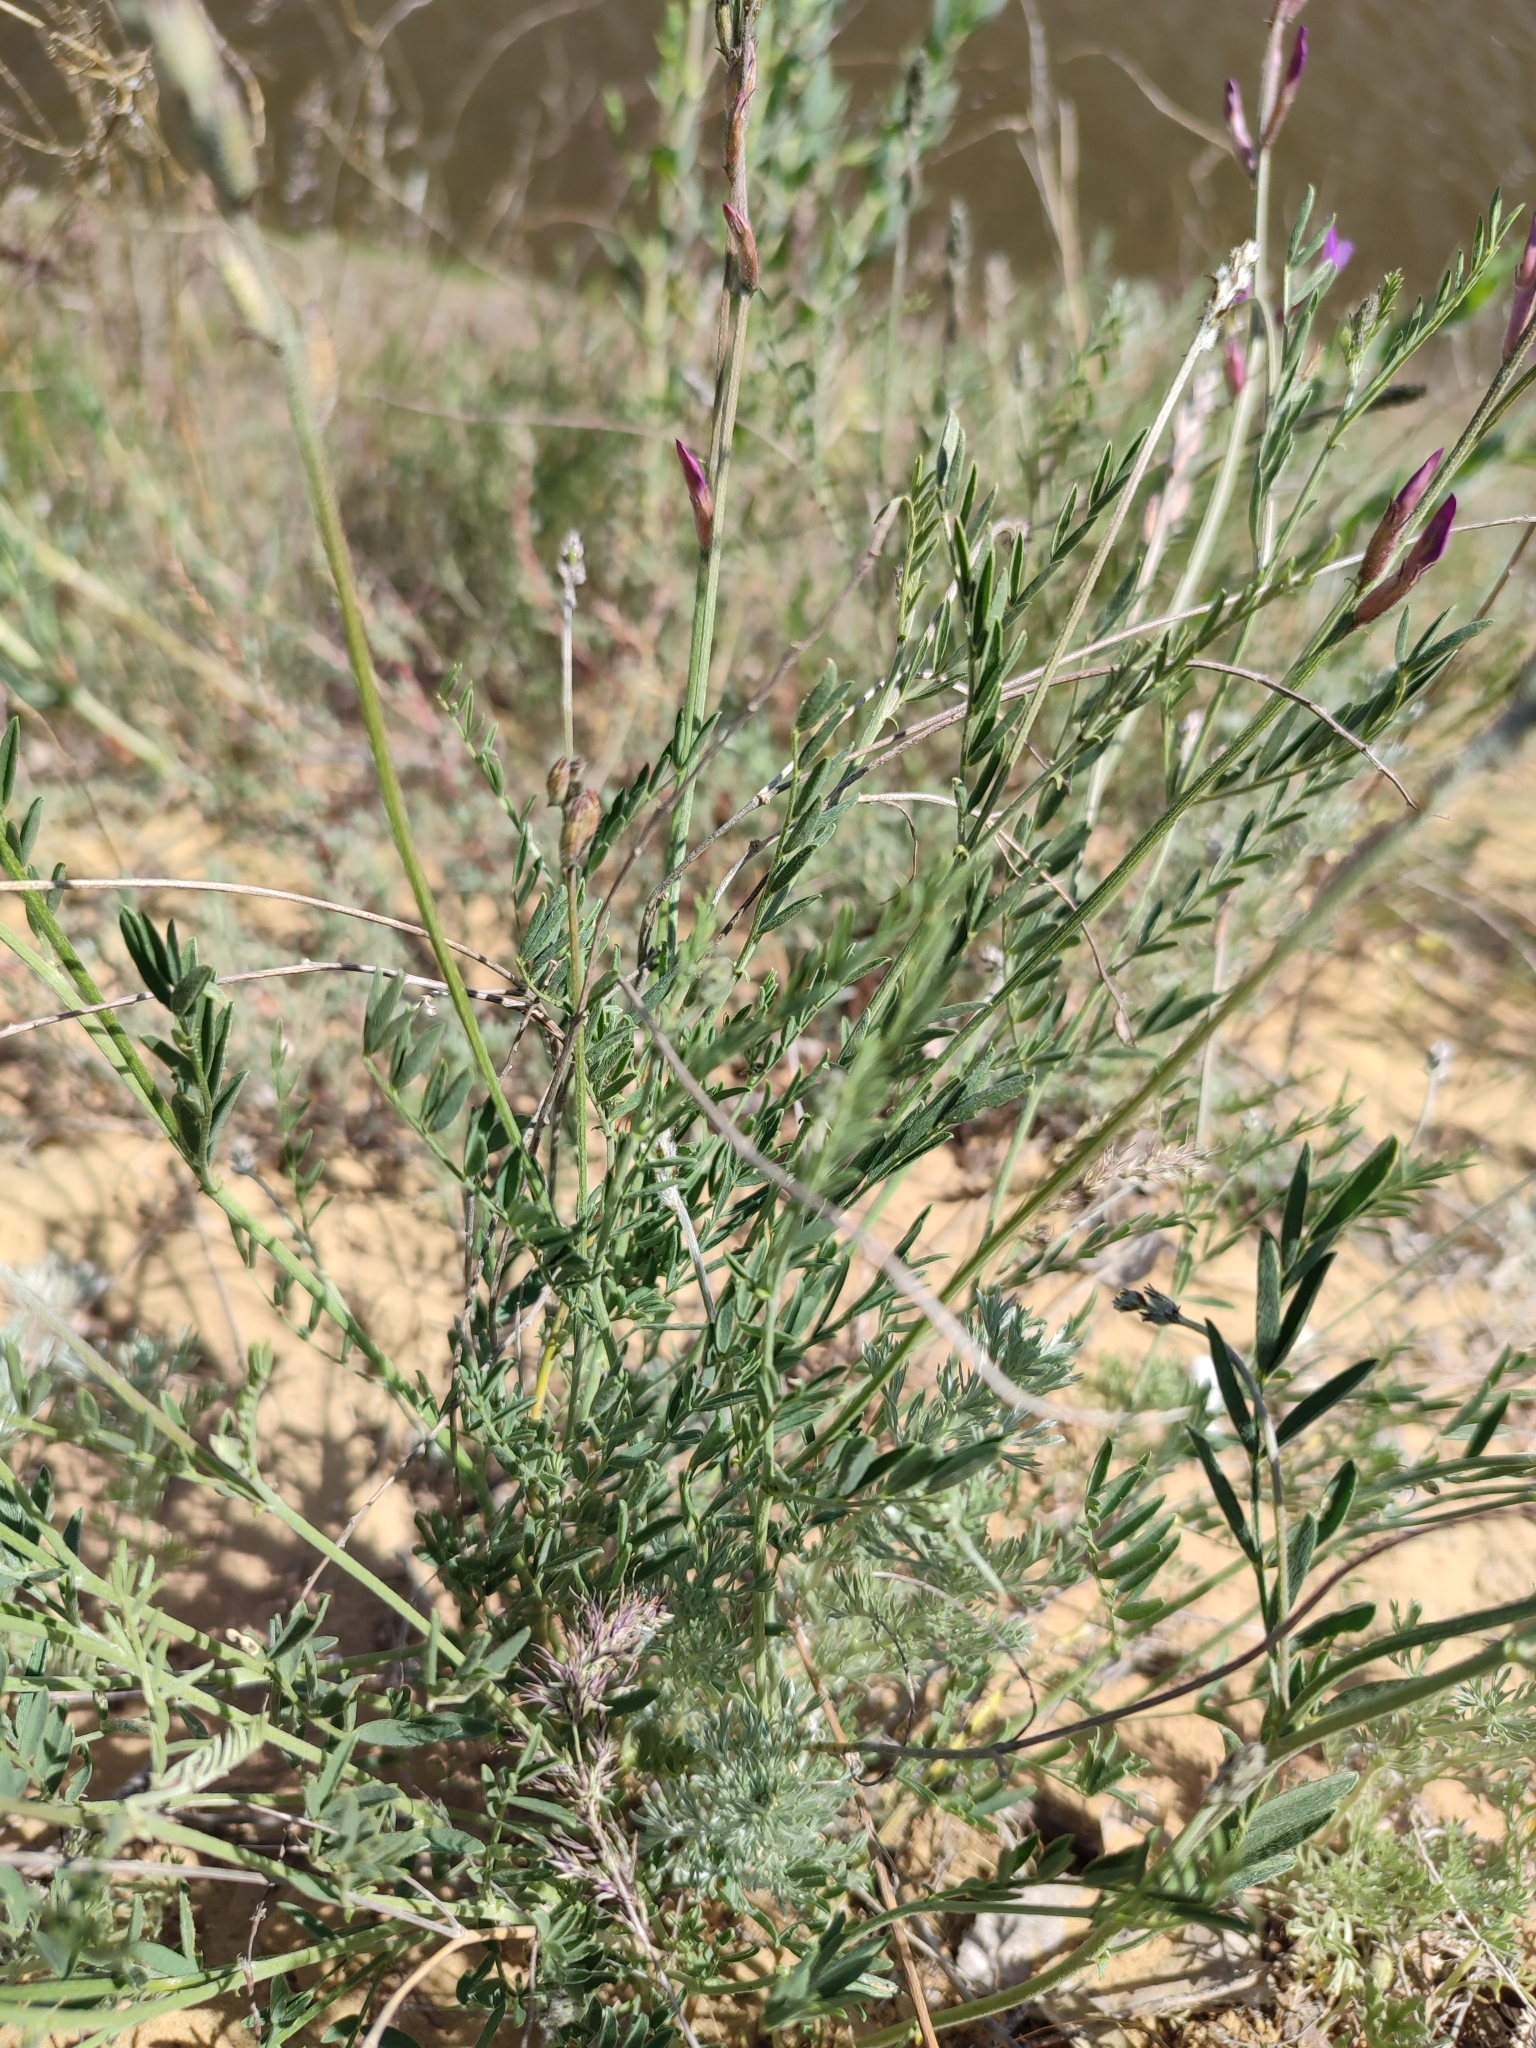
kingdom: Plantae
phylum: Tracheophyta
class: Magnoliopsida
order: Fabales
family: Fabaceae
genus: Astragalus
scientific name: Astragalus varius
